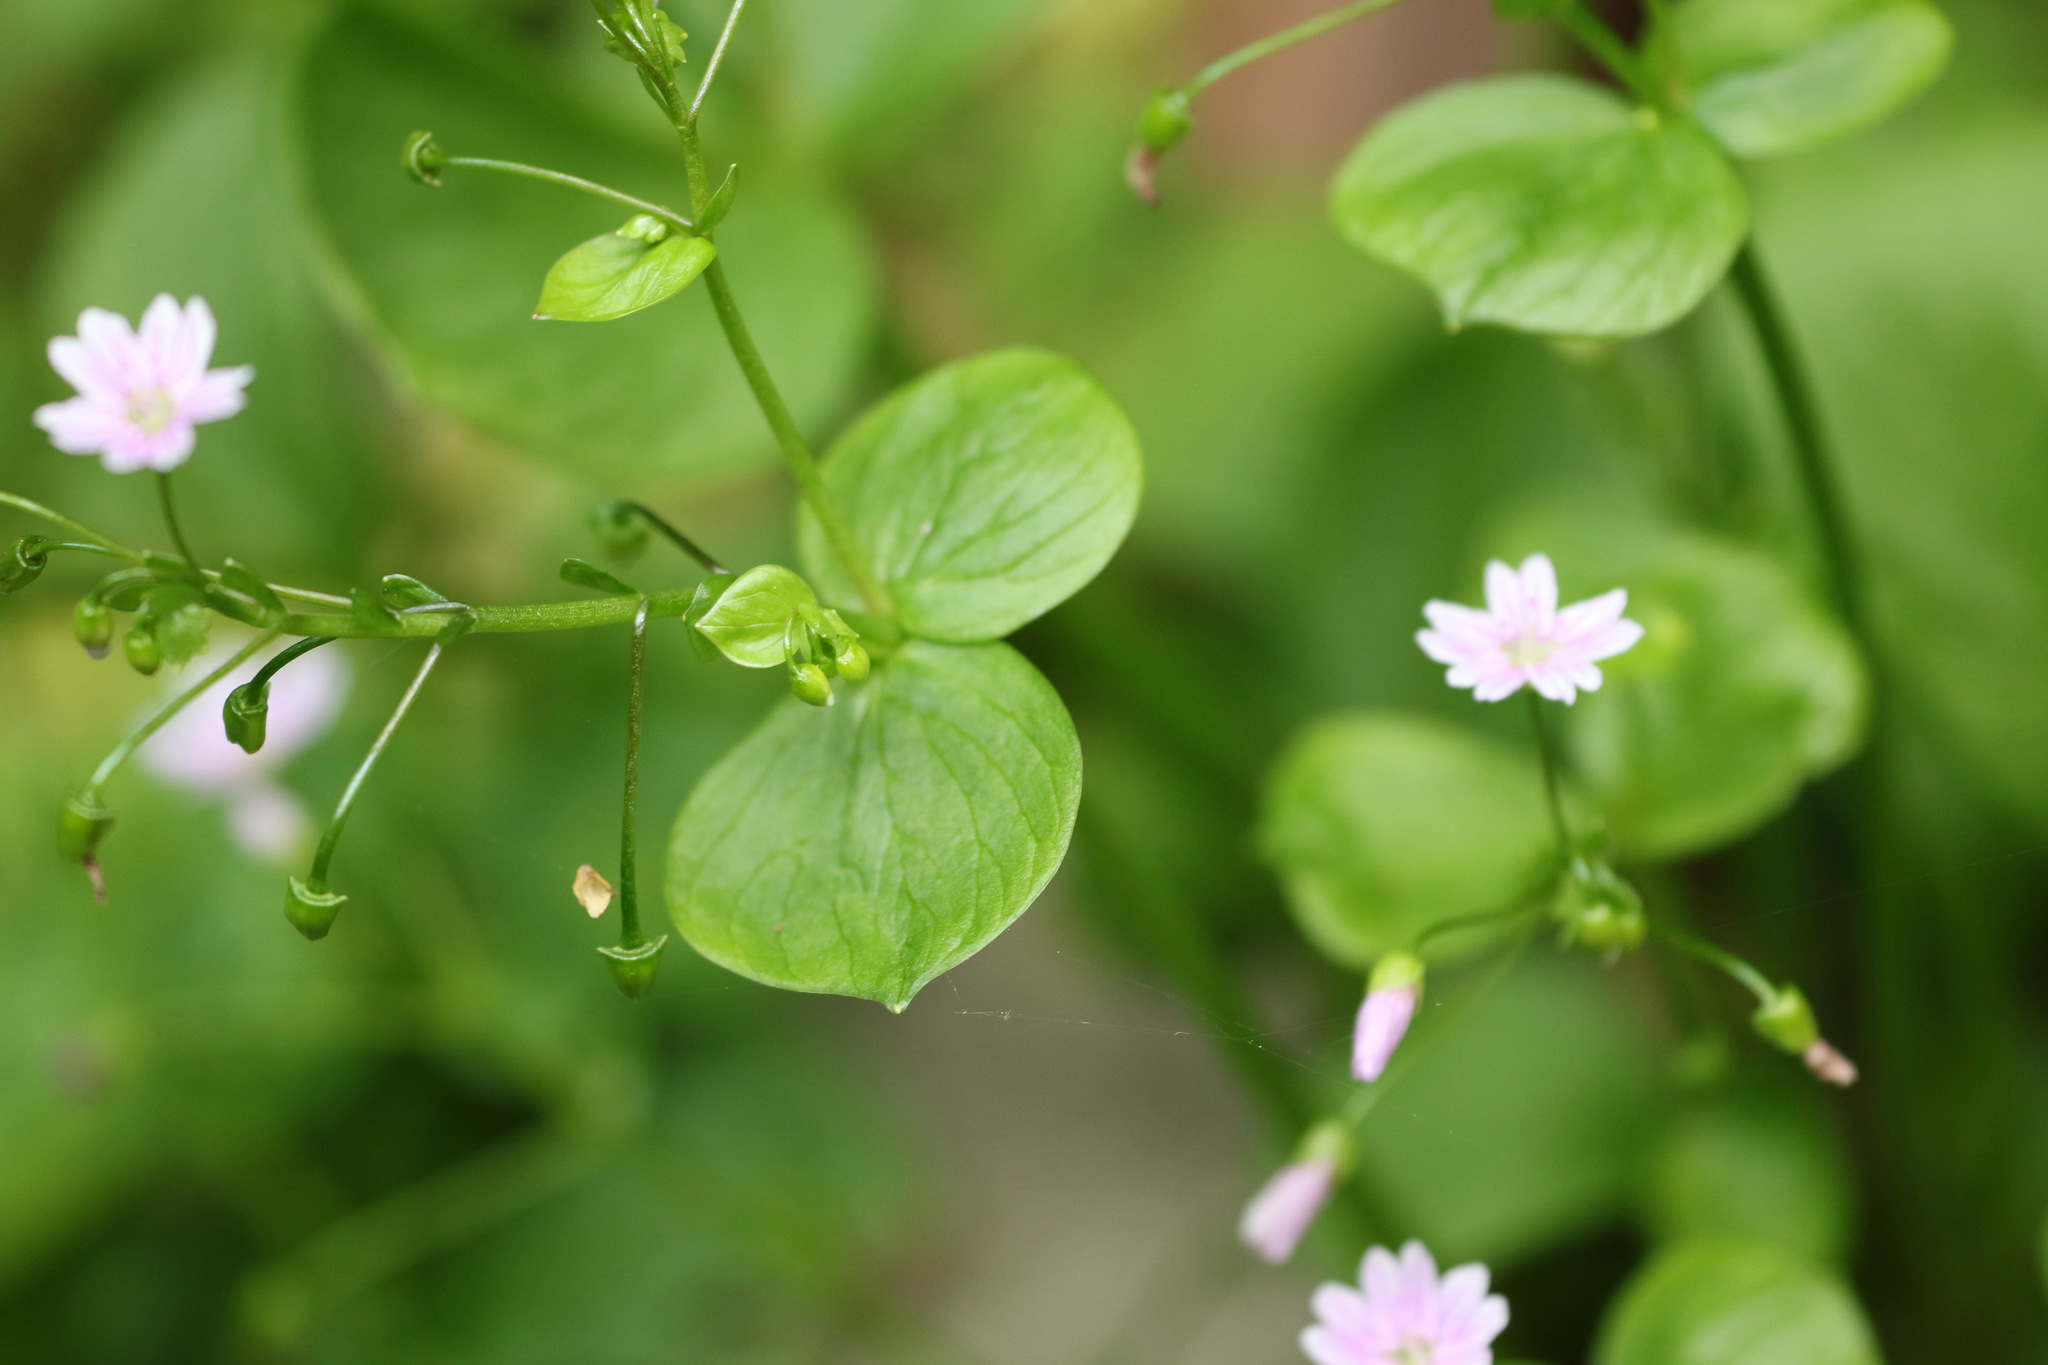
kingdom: Plantae
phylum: Tracheophyta
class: Magnoliopsida
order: Caryophyllales
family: Montiaceae
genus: Claytonia
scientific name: Claytonia sibirica
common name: Pink purslane
